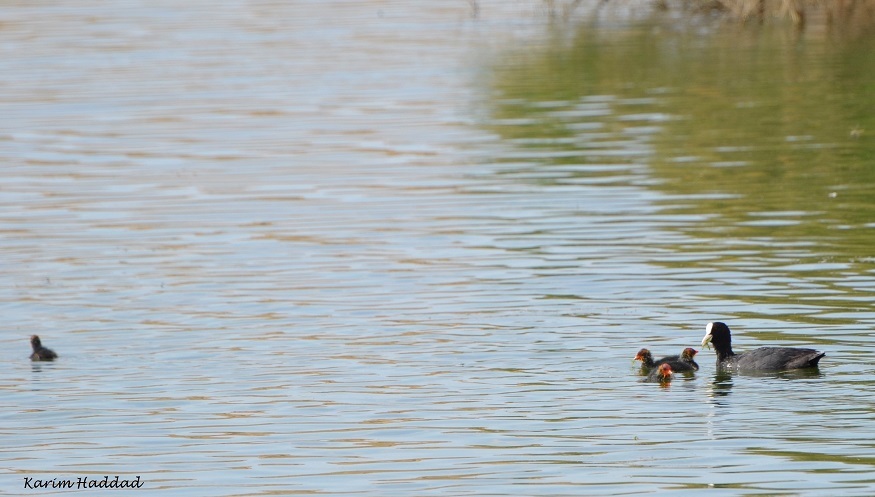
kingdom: Animalia
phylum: Chordata
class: Aves
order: Gruiformes
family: Rallidae
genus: Fulica
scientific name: Fulica atra
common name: Eurasian coot
